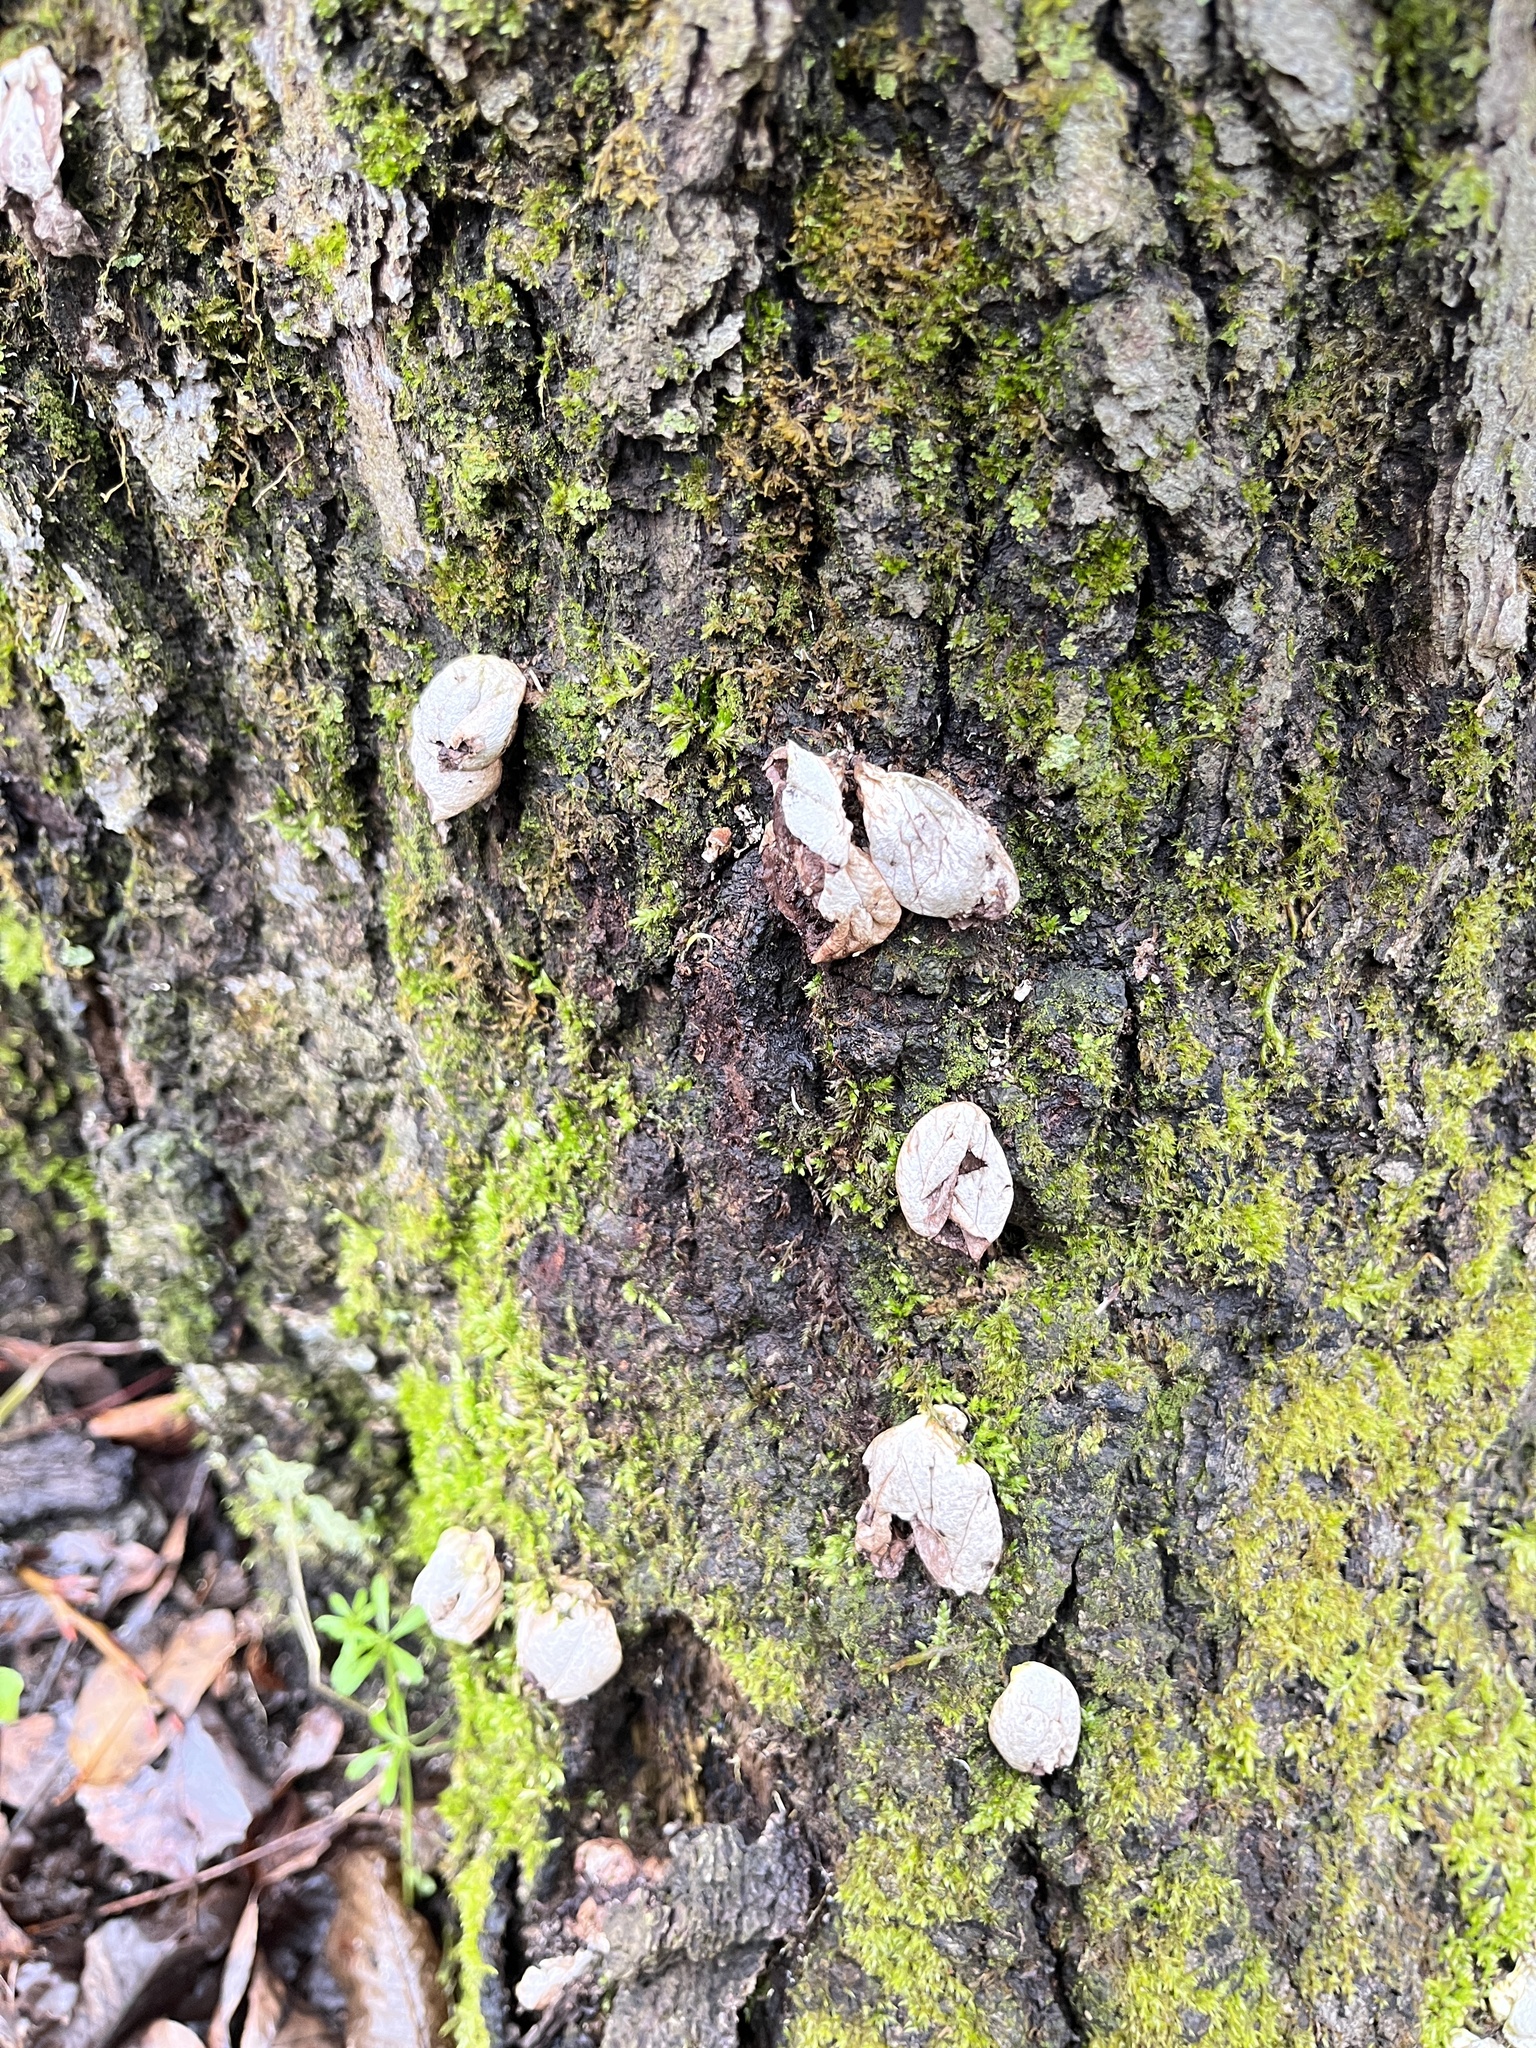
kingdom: Fungi
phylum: Basidiomycota
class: Agaricomycetes
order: Agaricales
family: Lycoperdaceae
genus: Apioperdon
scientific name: Apioperdon pyriforme
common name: Pear-shaped puffball
